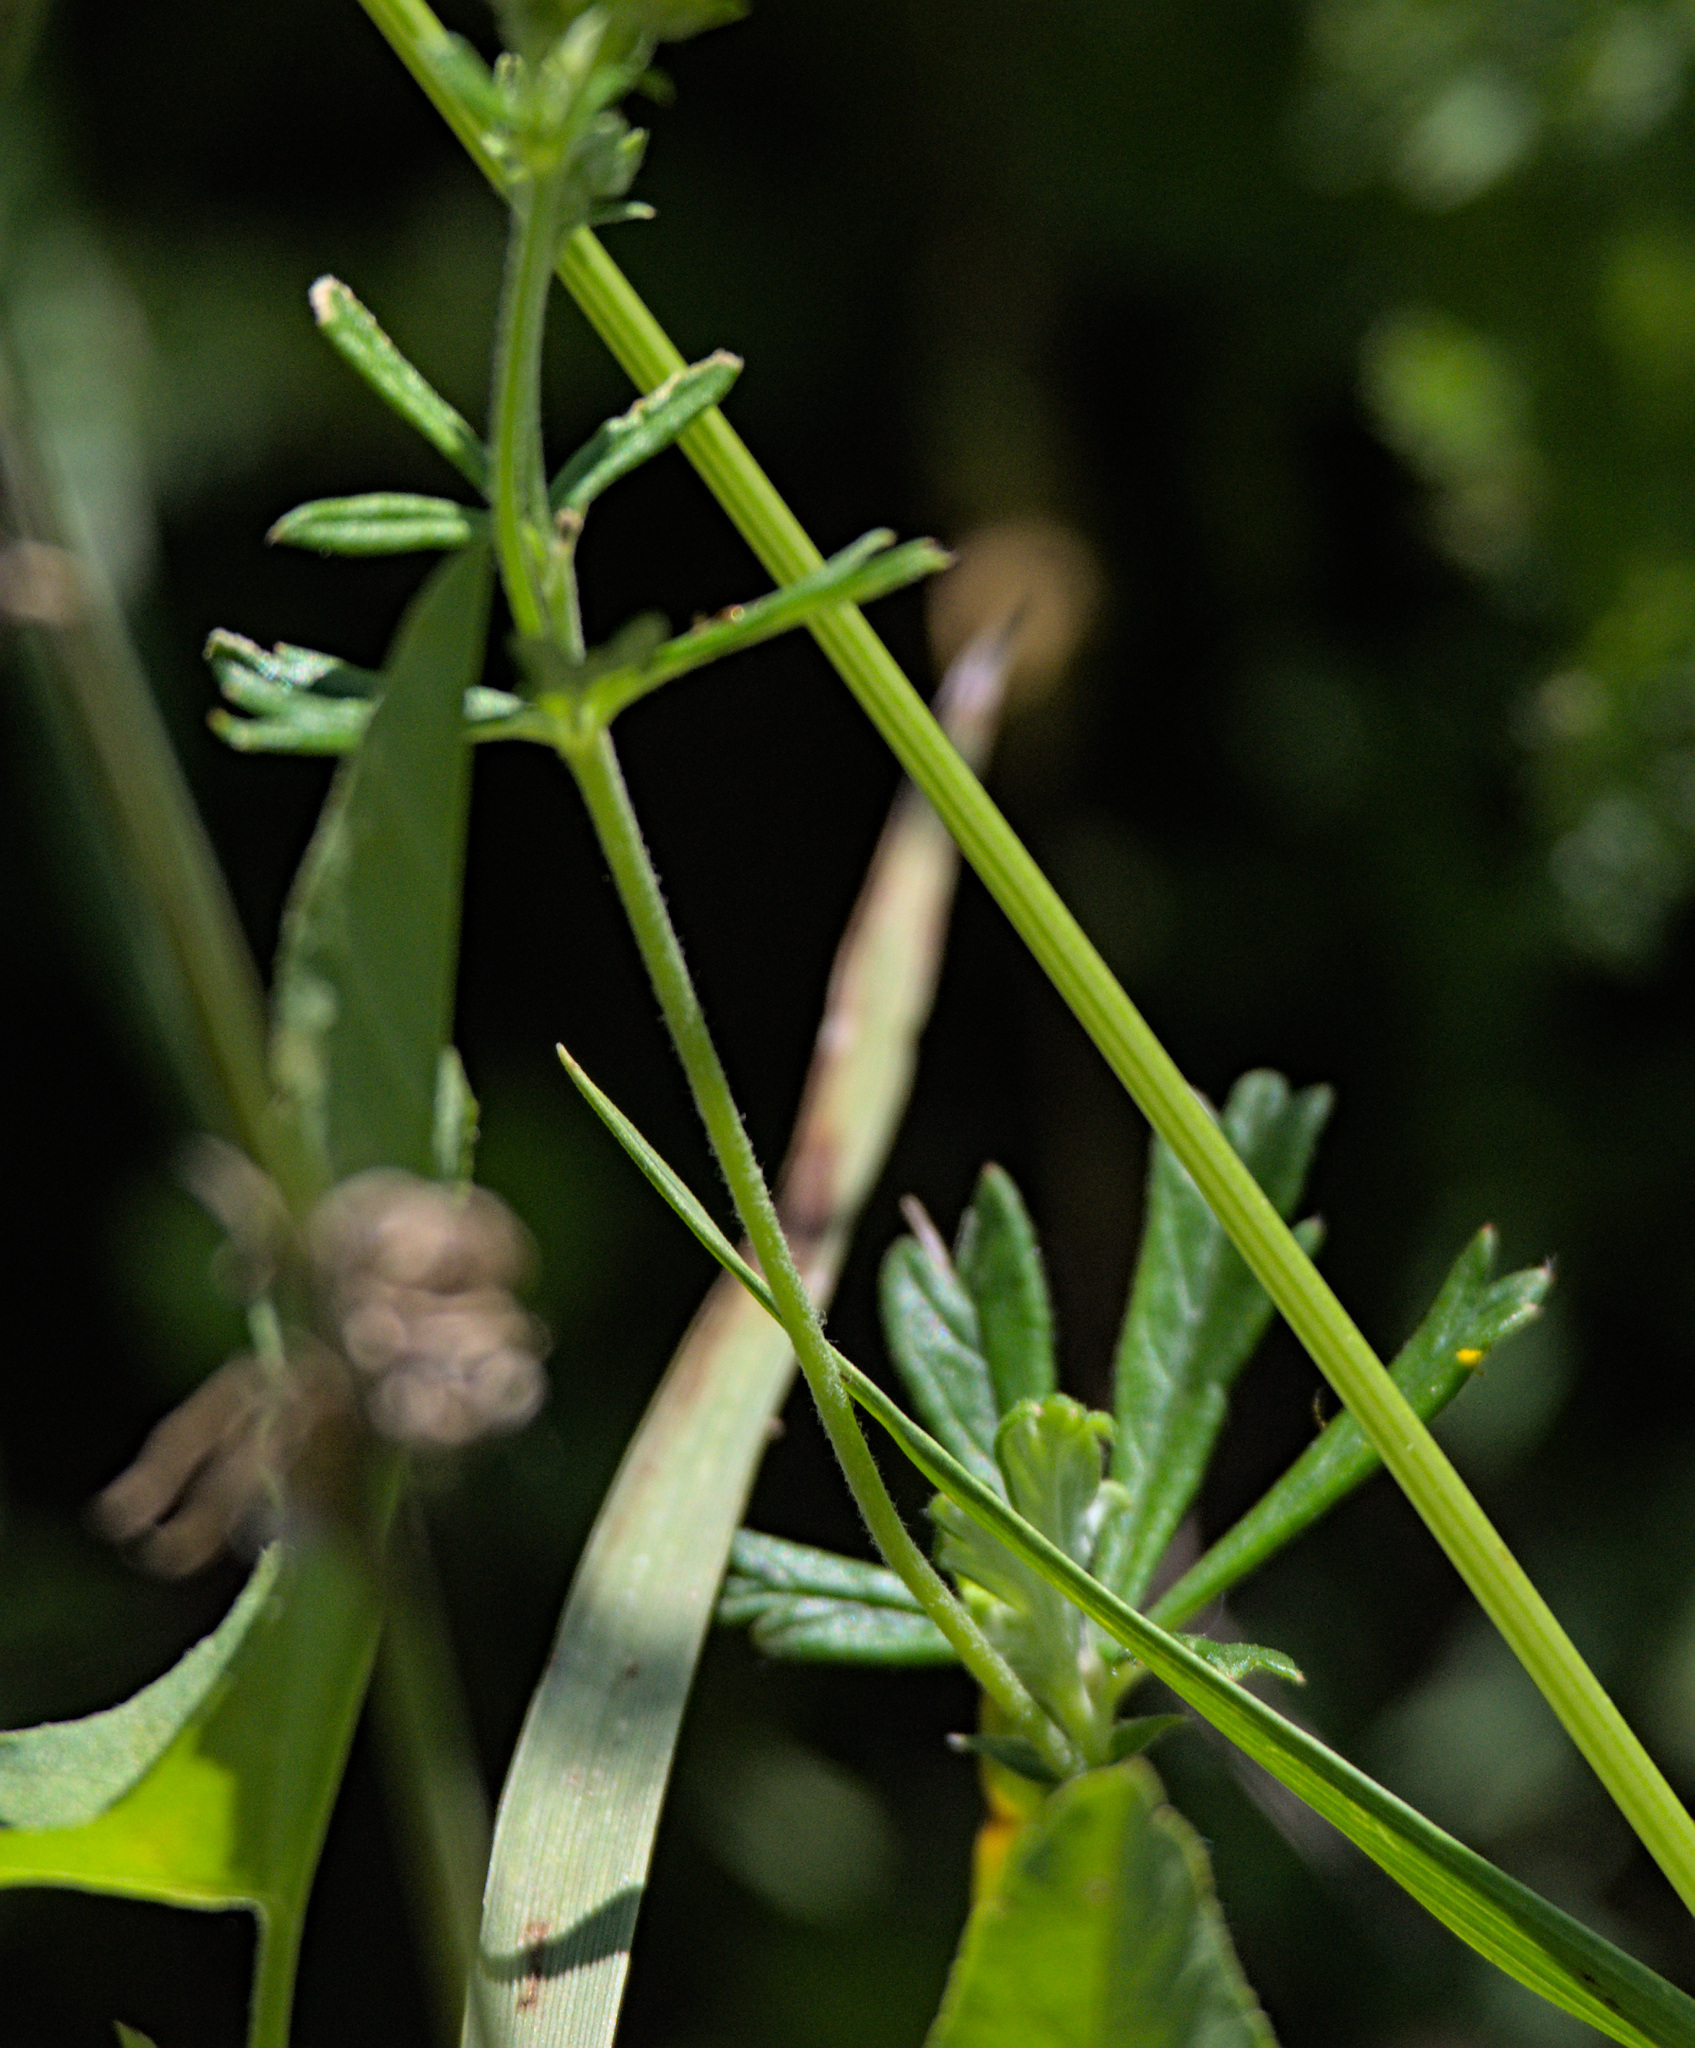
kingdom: Plantae
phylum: Tracheophyta
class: Magnoliopsida
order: Rosales
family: Rosaceae
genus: Potentilla
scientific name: Potentilla argentea
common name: Hoary cinquefoil
